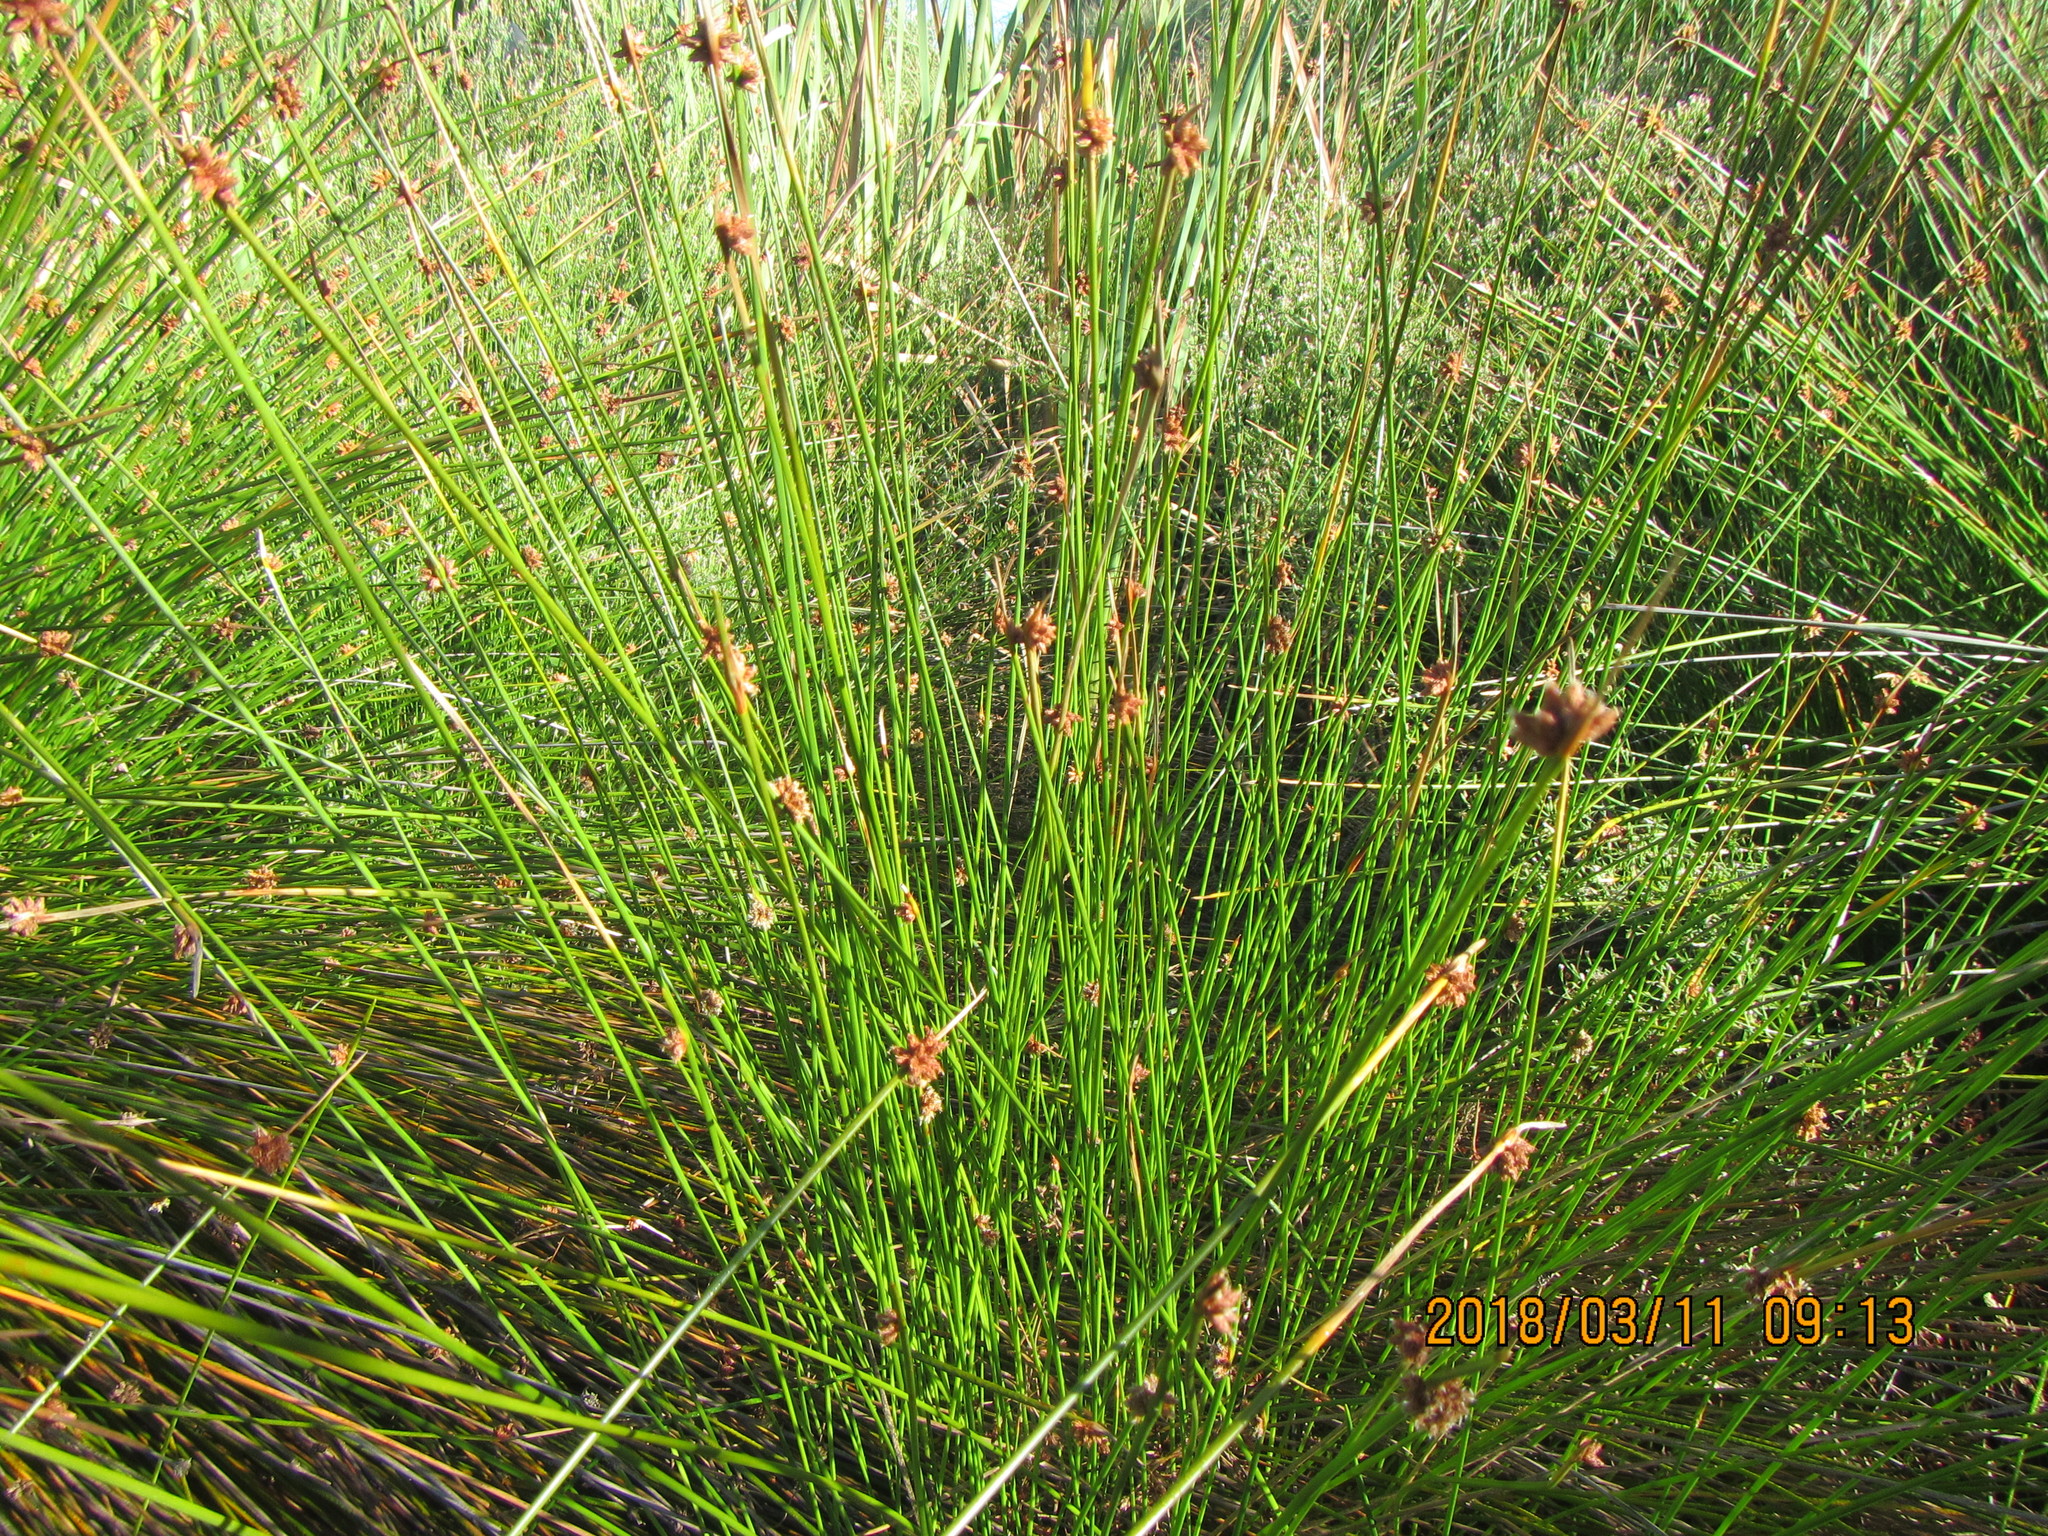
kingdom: Plantae
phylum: Tracheophyta
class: Liliopsida
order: Poales
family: Cyperaceae
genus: Ficinia
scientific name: Ficinia nodosa
